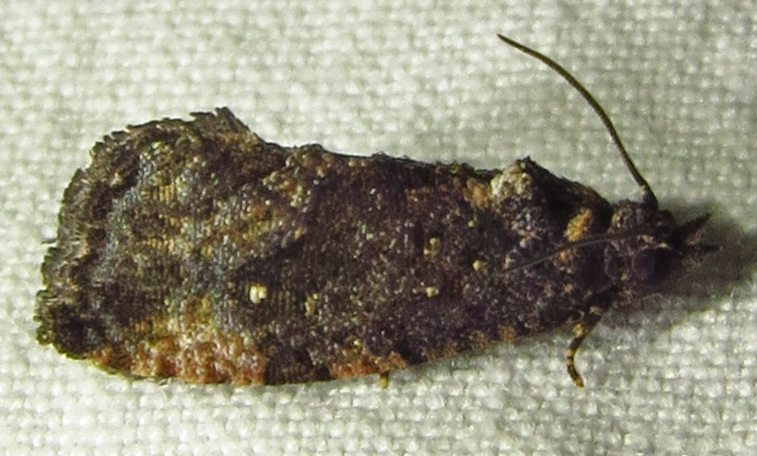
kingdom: Animalia
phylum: Arthropoda
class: Insecta
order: Lepidoptera
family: Tortricidae
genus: Gymnandrosoma
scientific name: Gymnandrosoma punctidiscanum
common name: Dotted ecdytolopha moth
